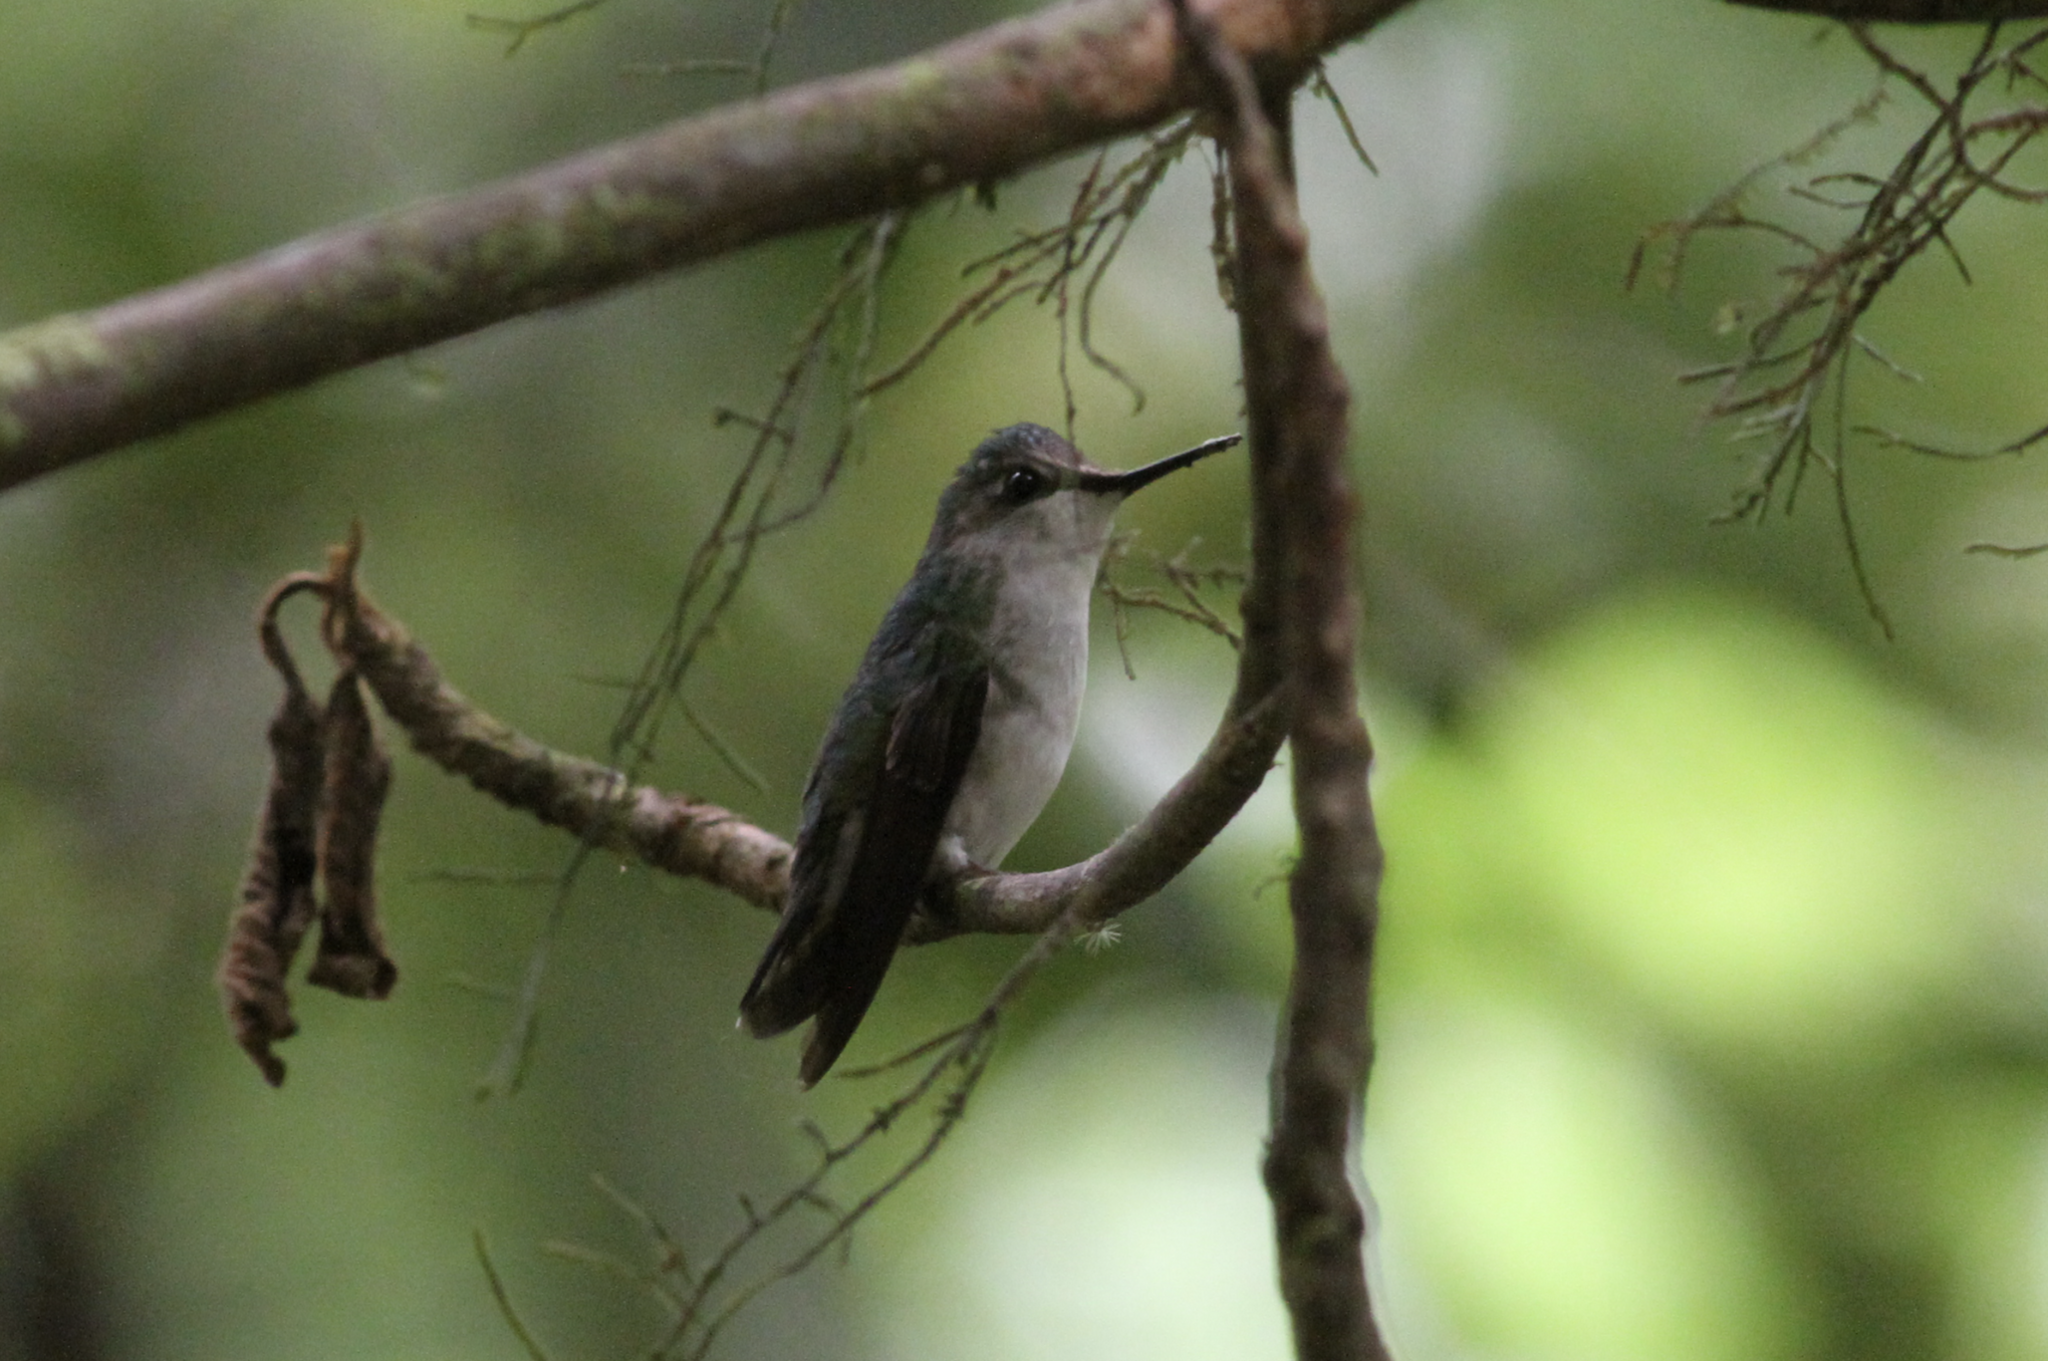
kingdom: Animalia
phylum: Chordata
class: Aves
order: Apodiformes
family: Trochilidae
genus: Microchera
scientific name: Microchera albocoronata
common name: Snowcap
